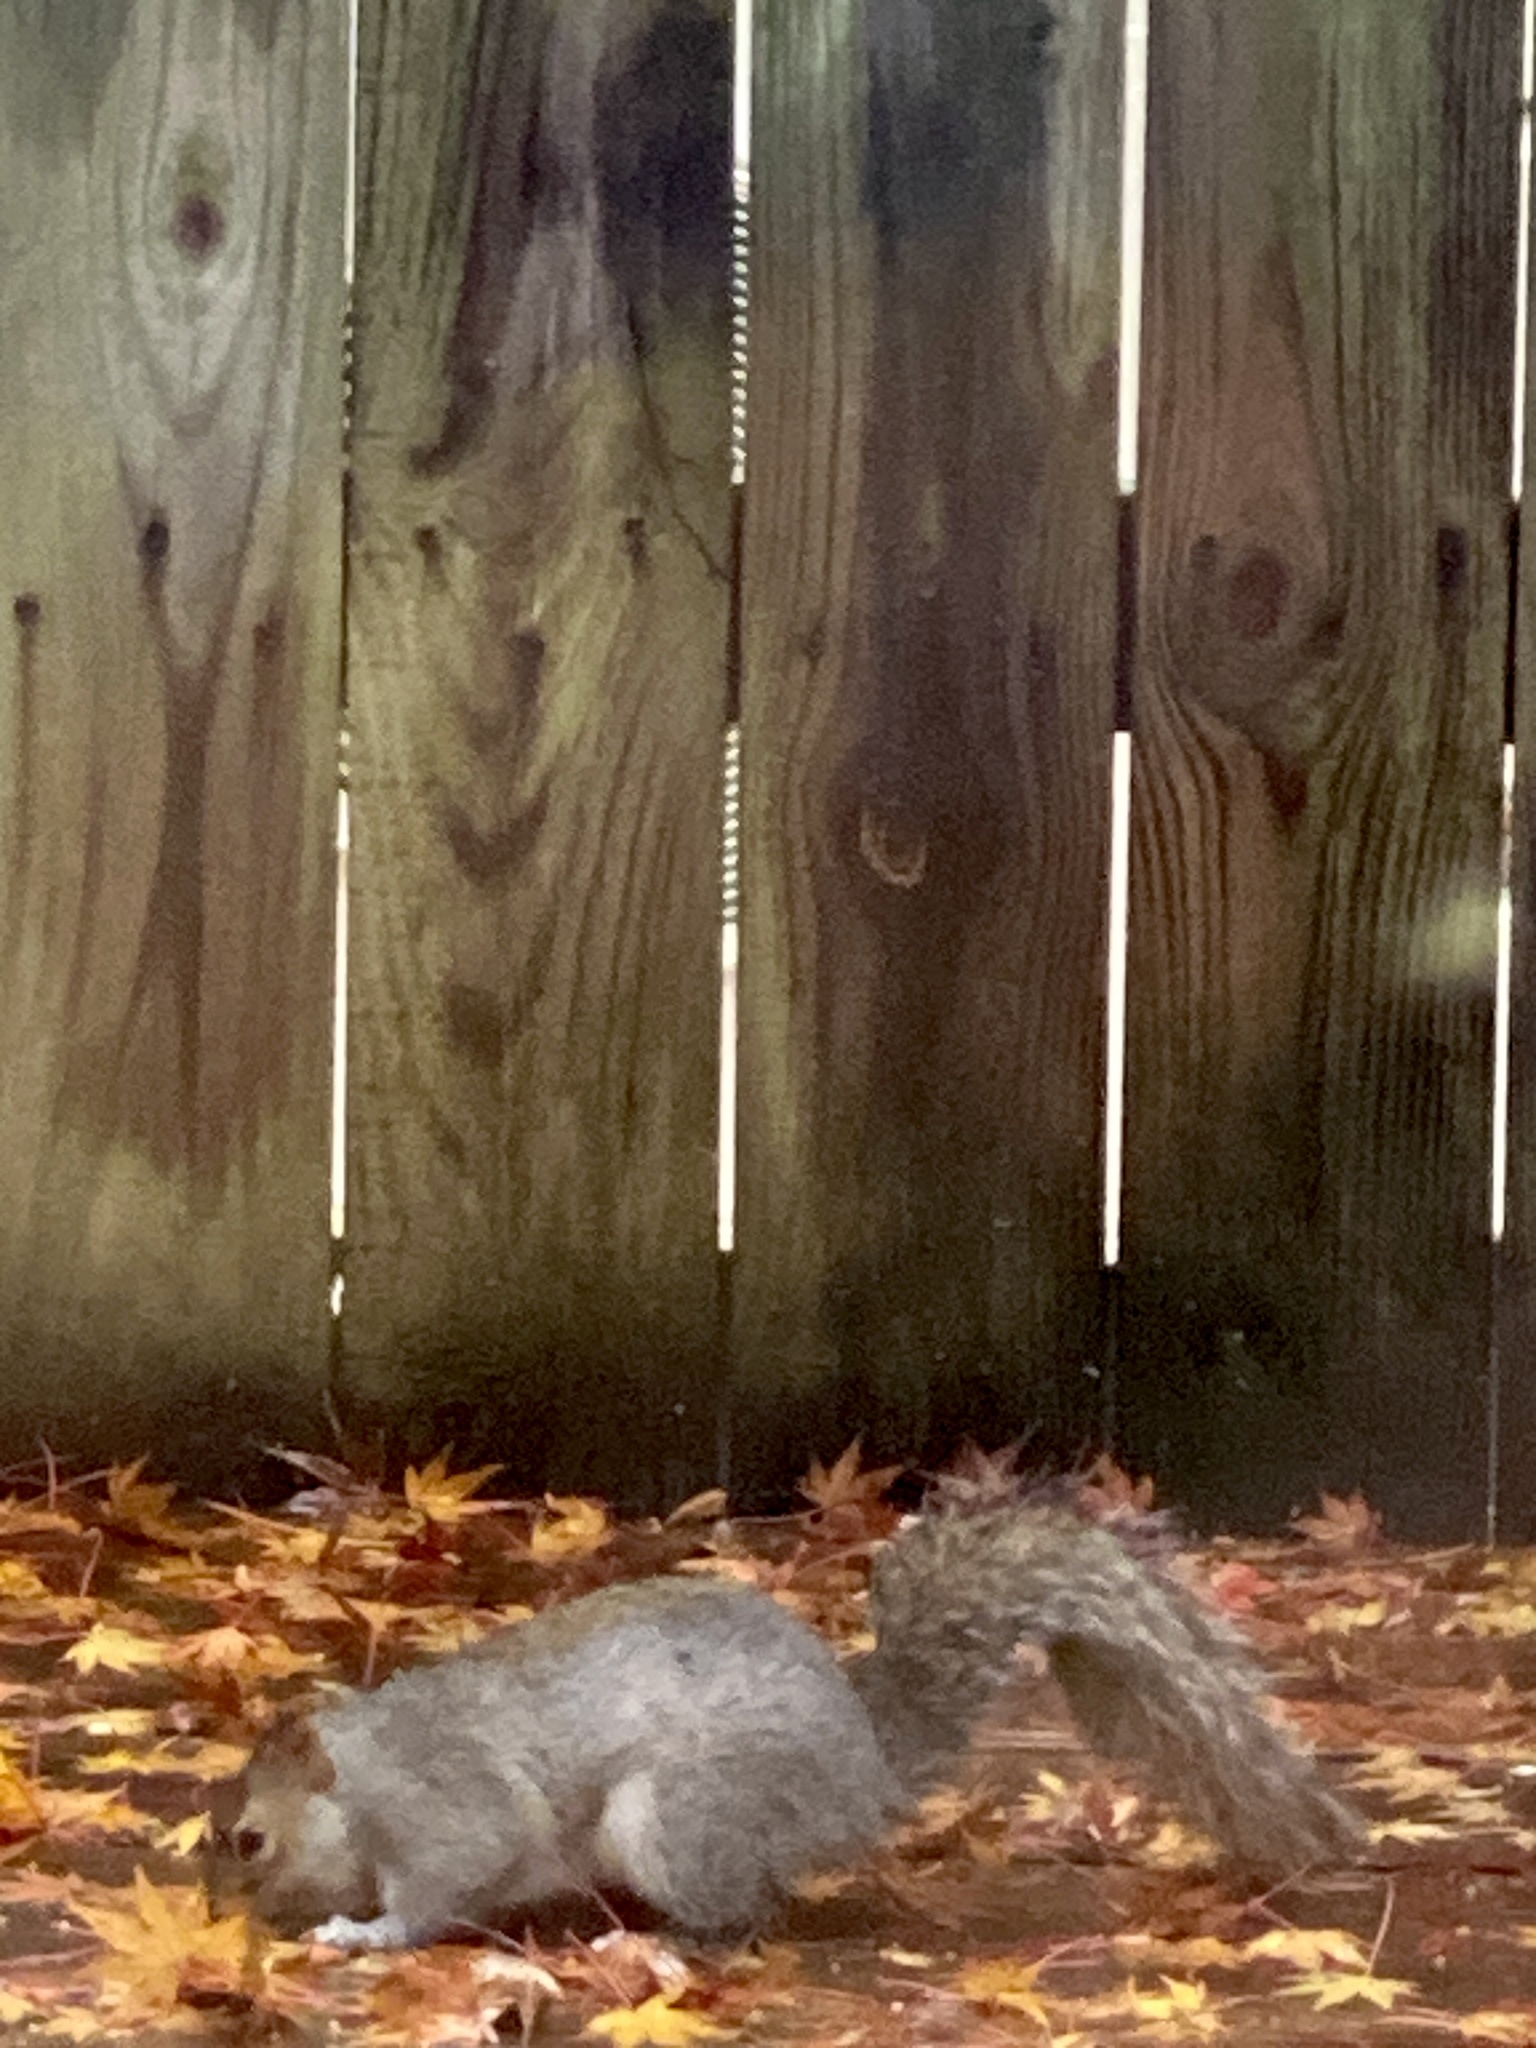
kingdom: Animalia
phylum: Chordata
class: Mammalia
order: Rodentia
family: Sciuridae
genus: Sciurus
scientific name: Sciurus carolinensis
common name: Eastern gray squirrel
